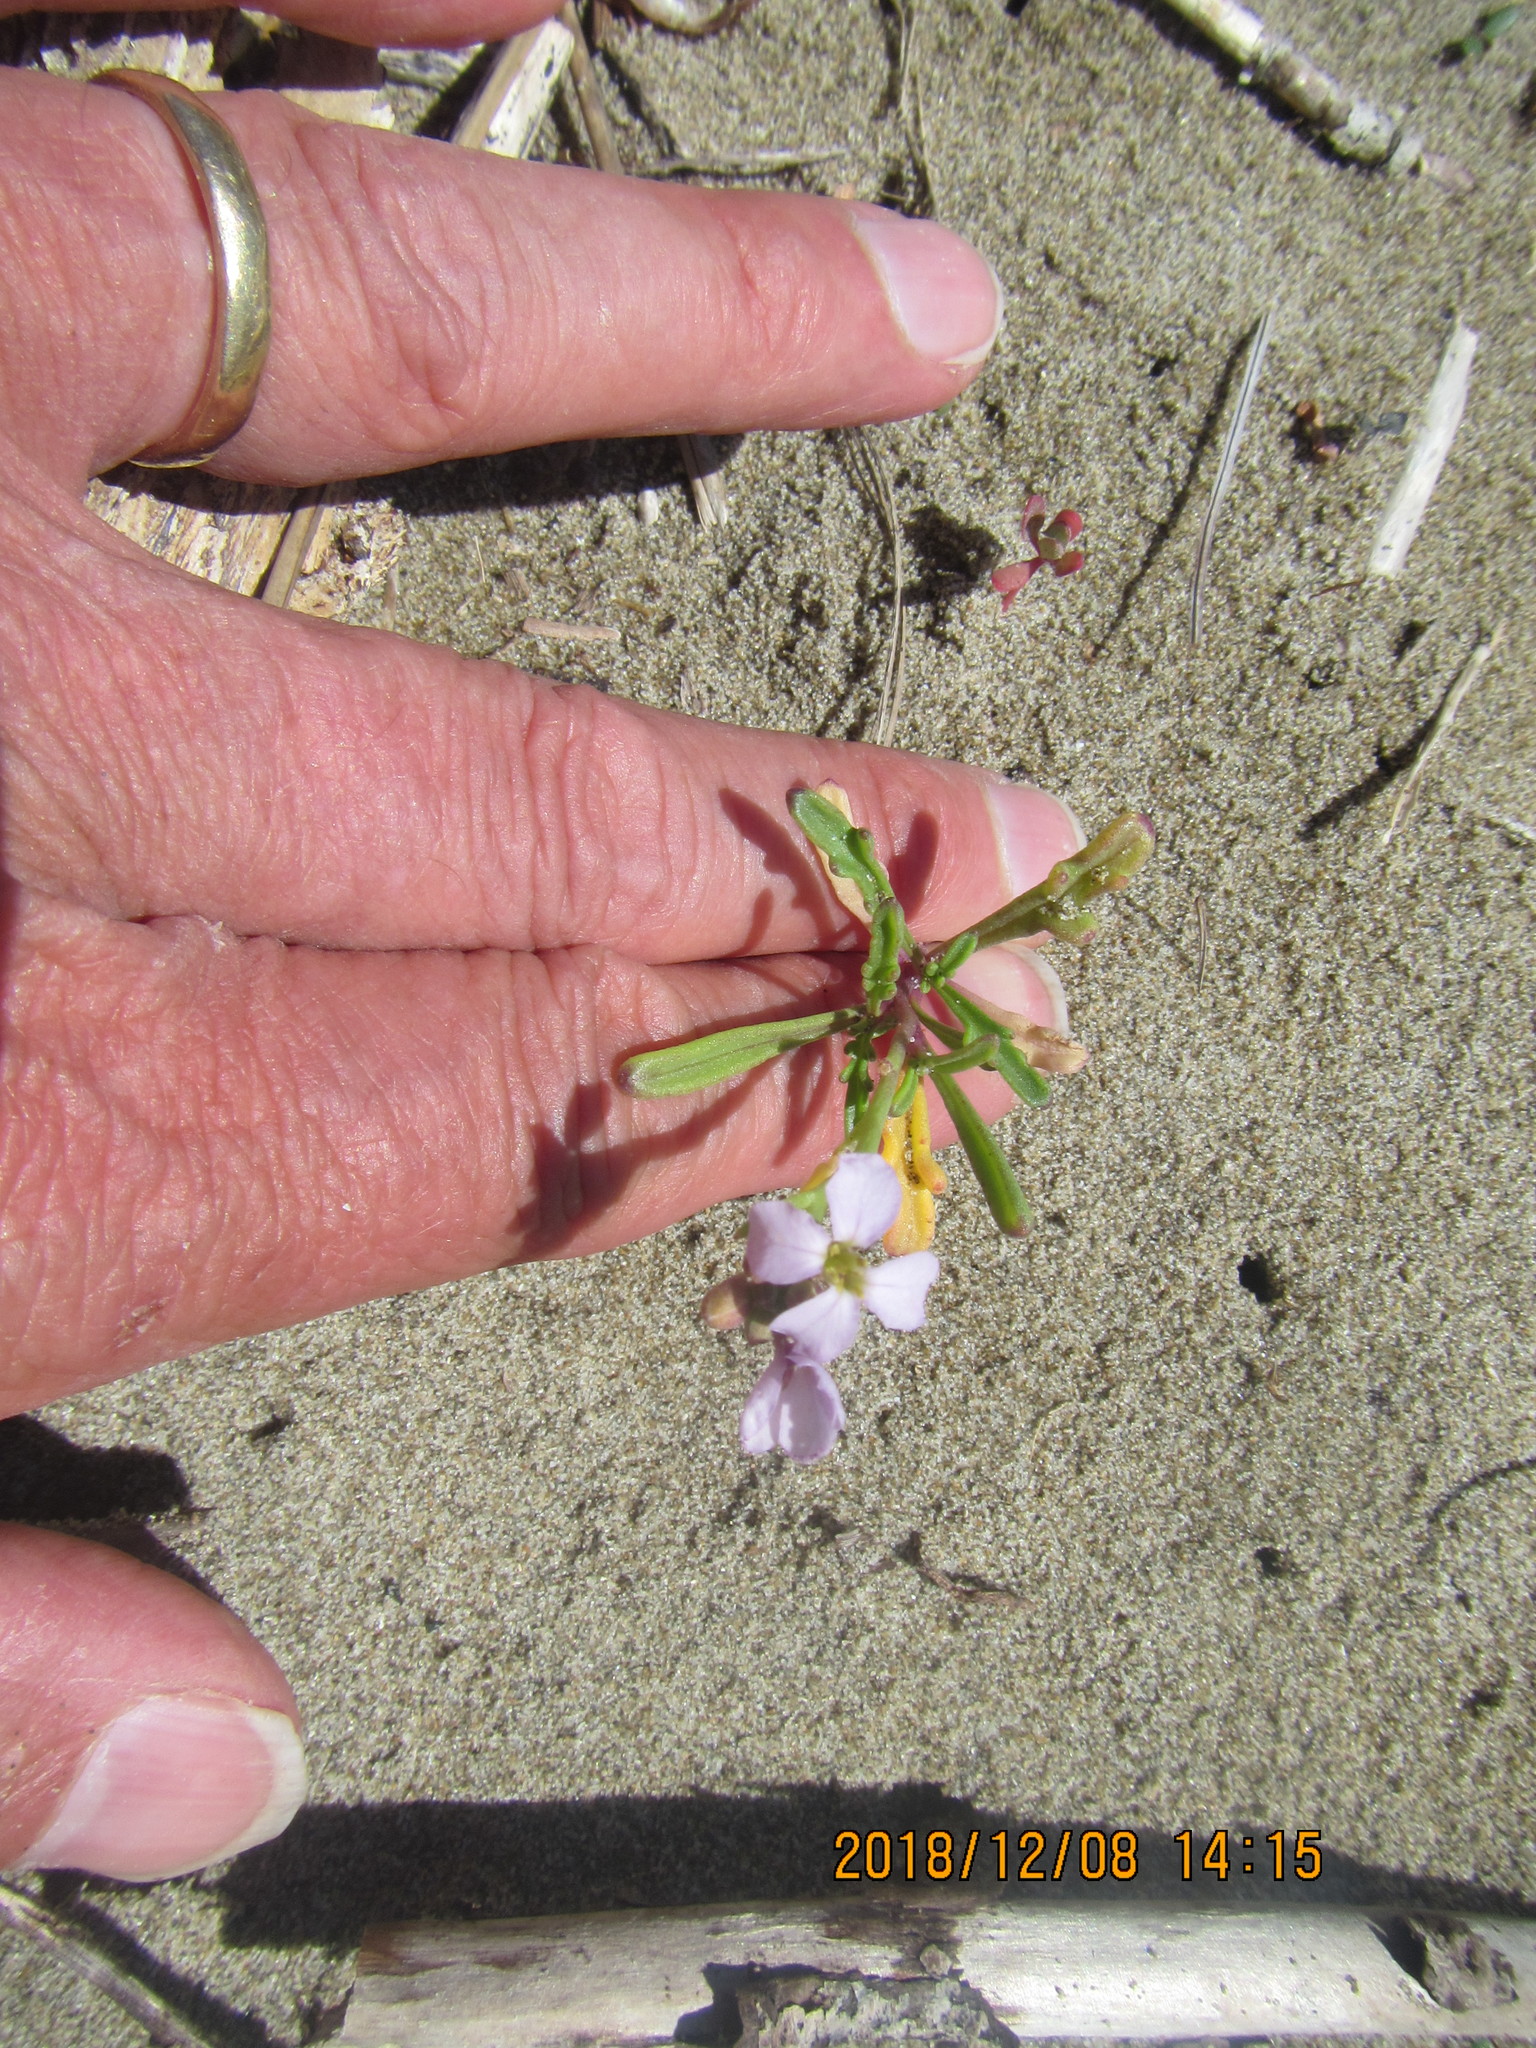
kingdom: Plantae
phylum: Tracheophyta
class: Magnoliopsida
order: Brassicales
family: Brassicaceae
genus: Cakile
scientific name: Cakile maritima
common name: Sea rocket
